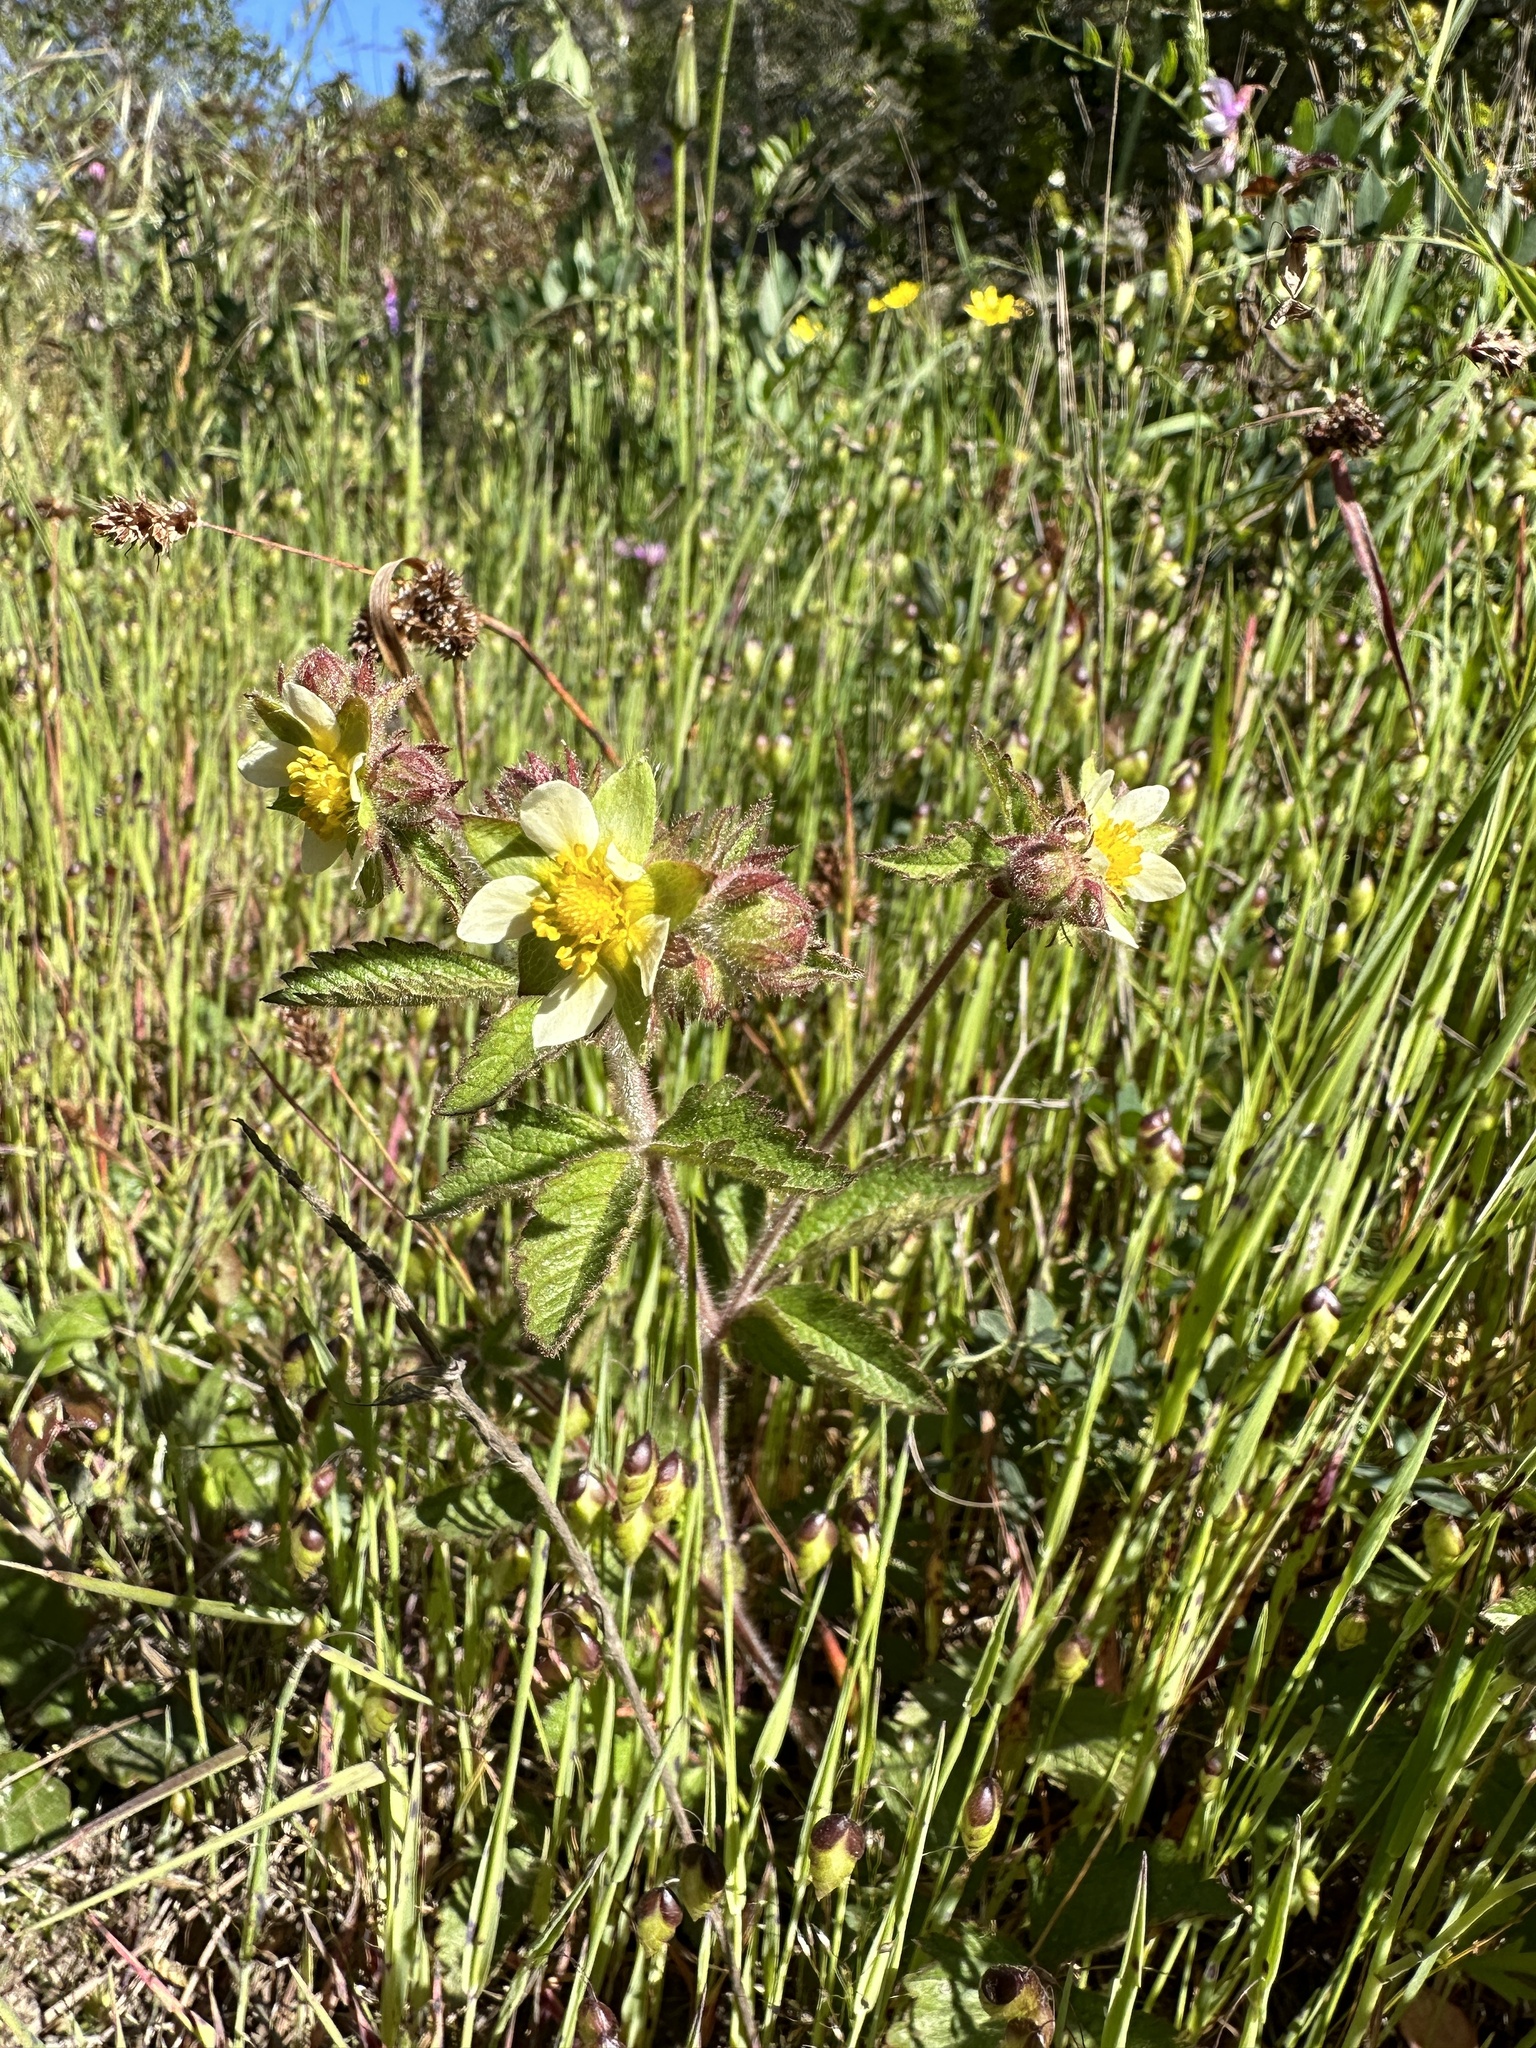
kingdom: Plantae
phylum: Tracheophyta
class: Magnoliopsida
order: Rosales
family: Rosaceae
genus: Drymocallis
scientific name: Drymocallis glandulosa
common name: Sticky cinquefoil
